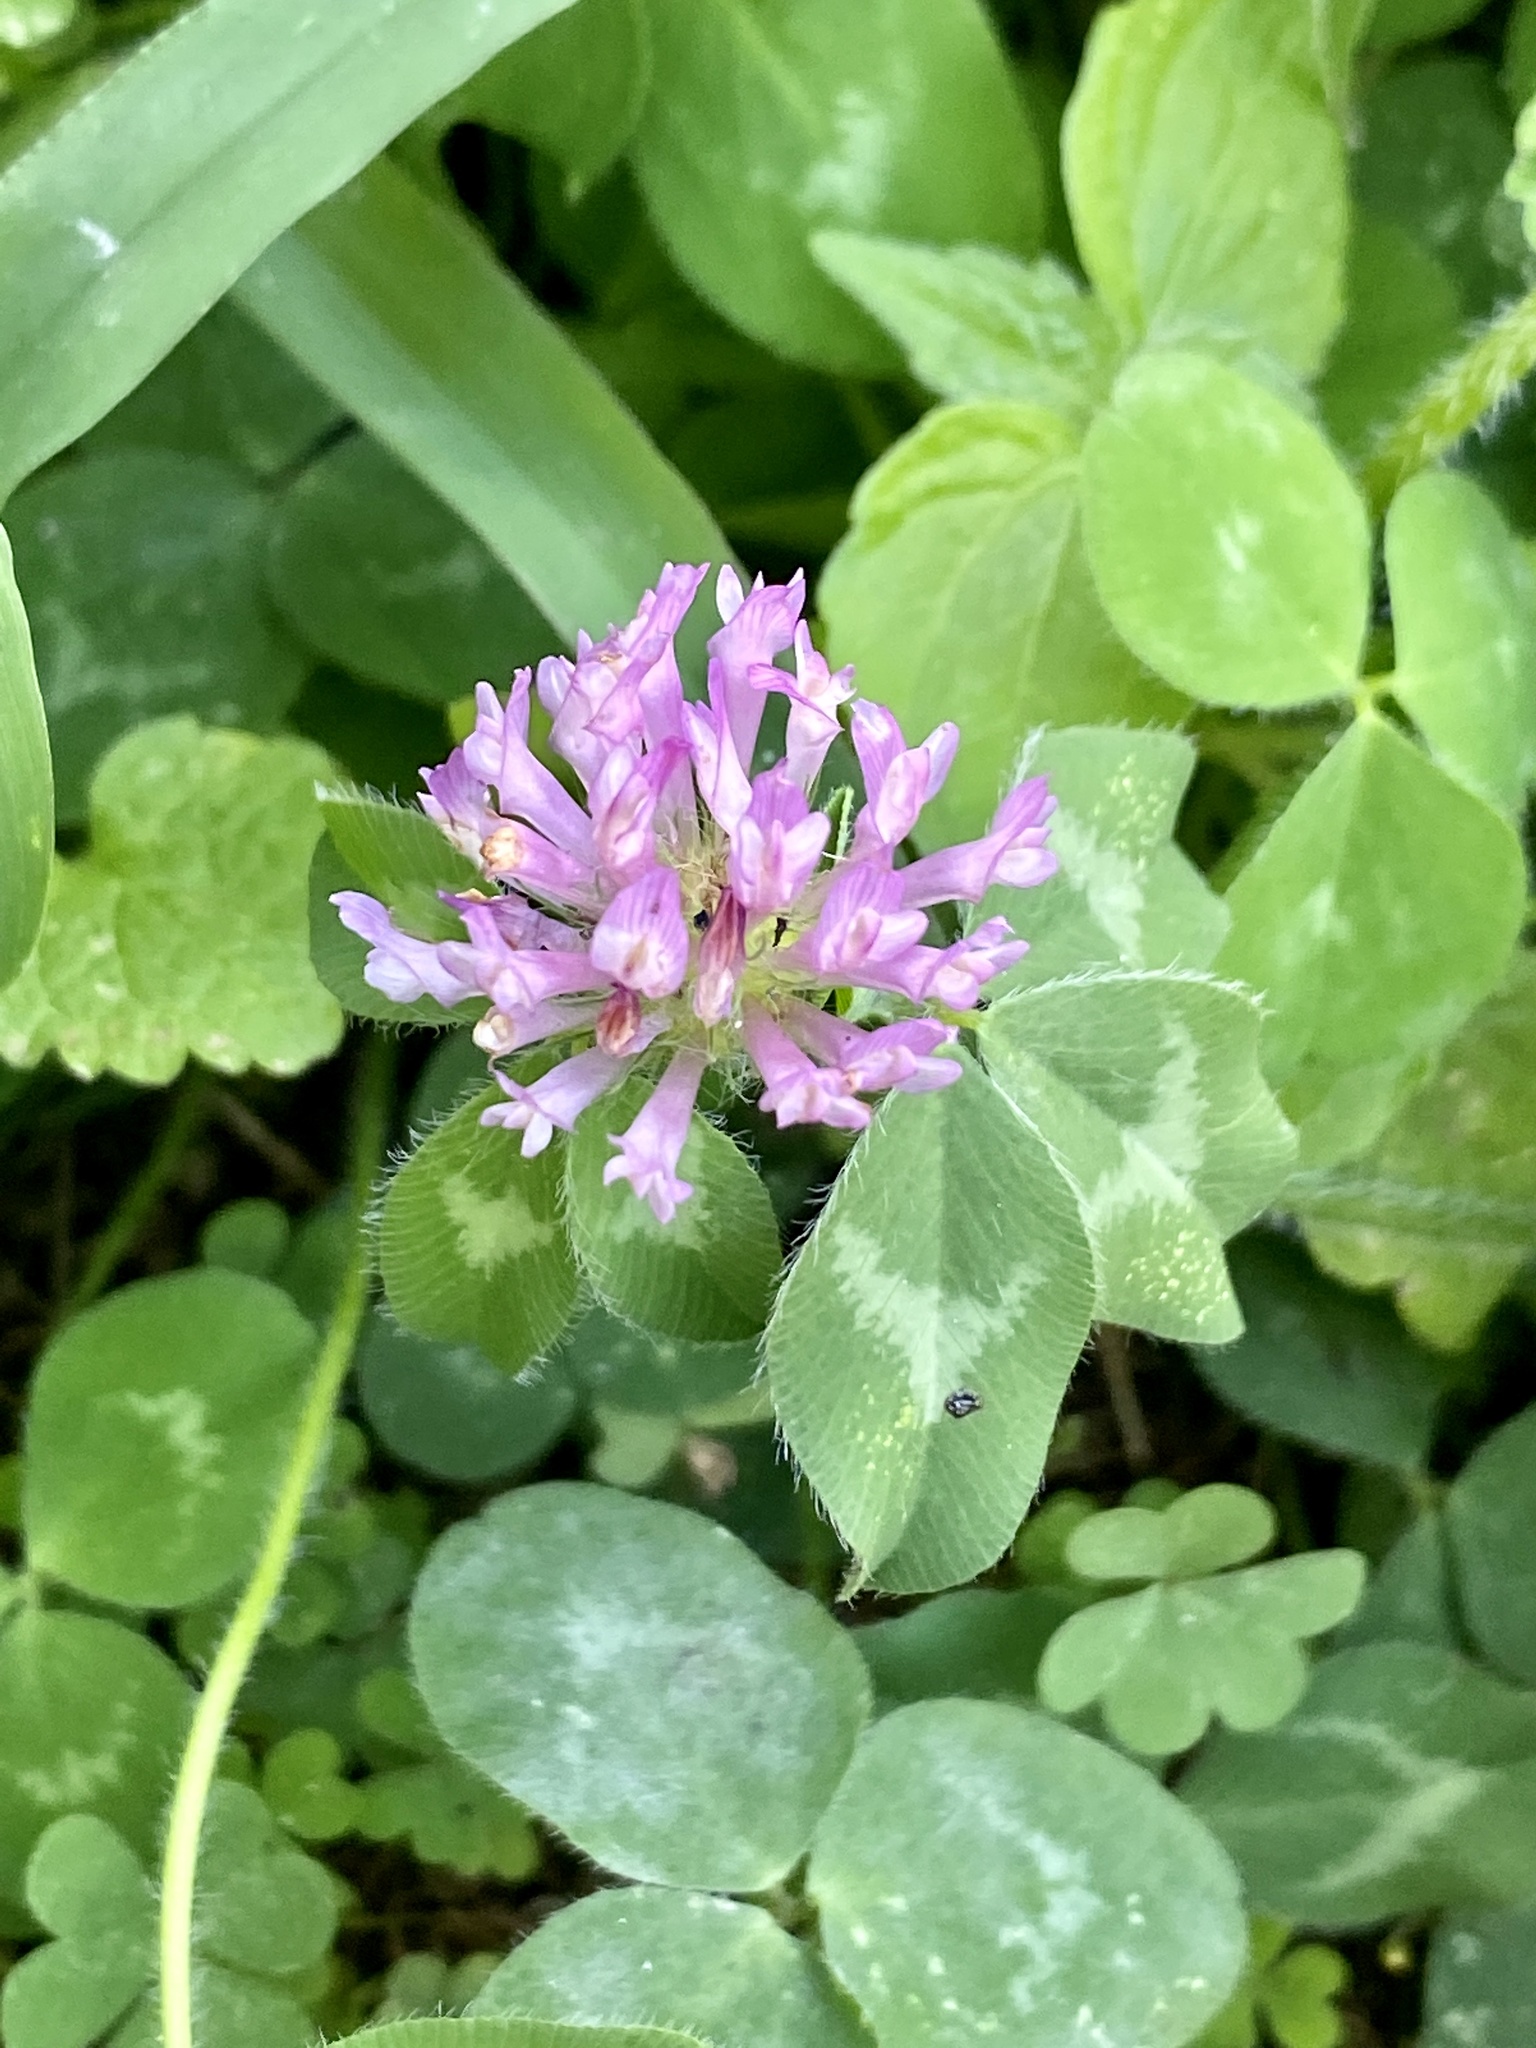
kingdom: Plantae
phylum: Tracheophyta
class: Magnoliopsida
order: Fabales
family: Fabaceae
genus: Trifolium
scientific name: Trifolium pratense
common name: Red clover
